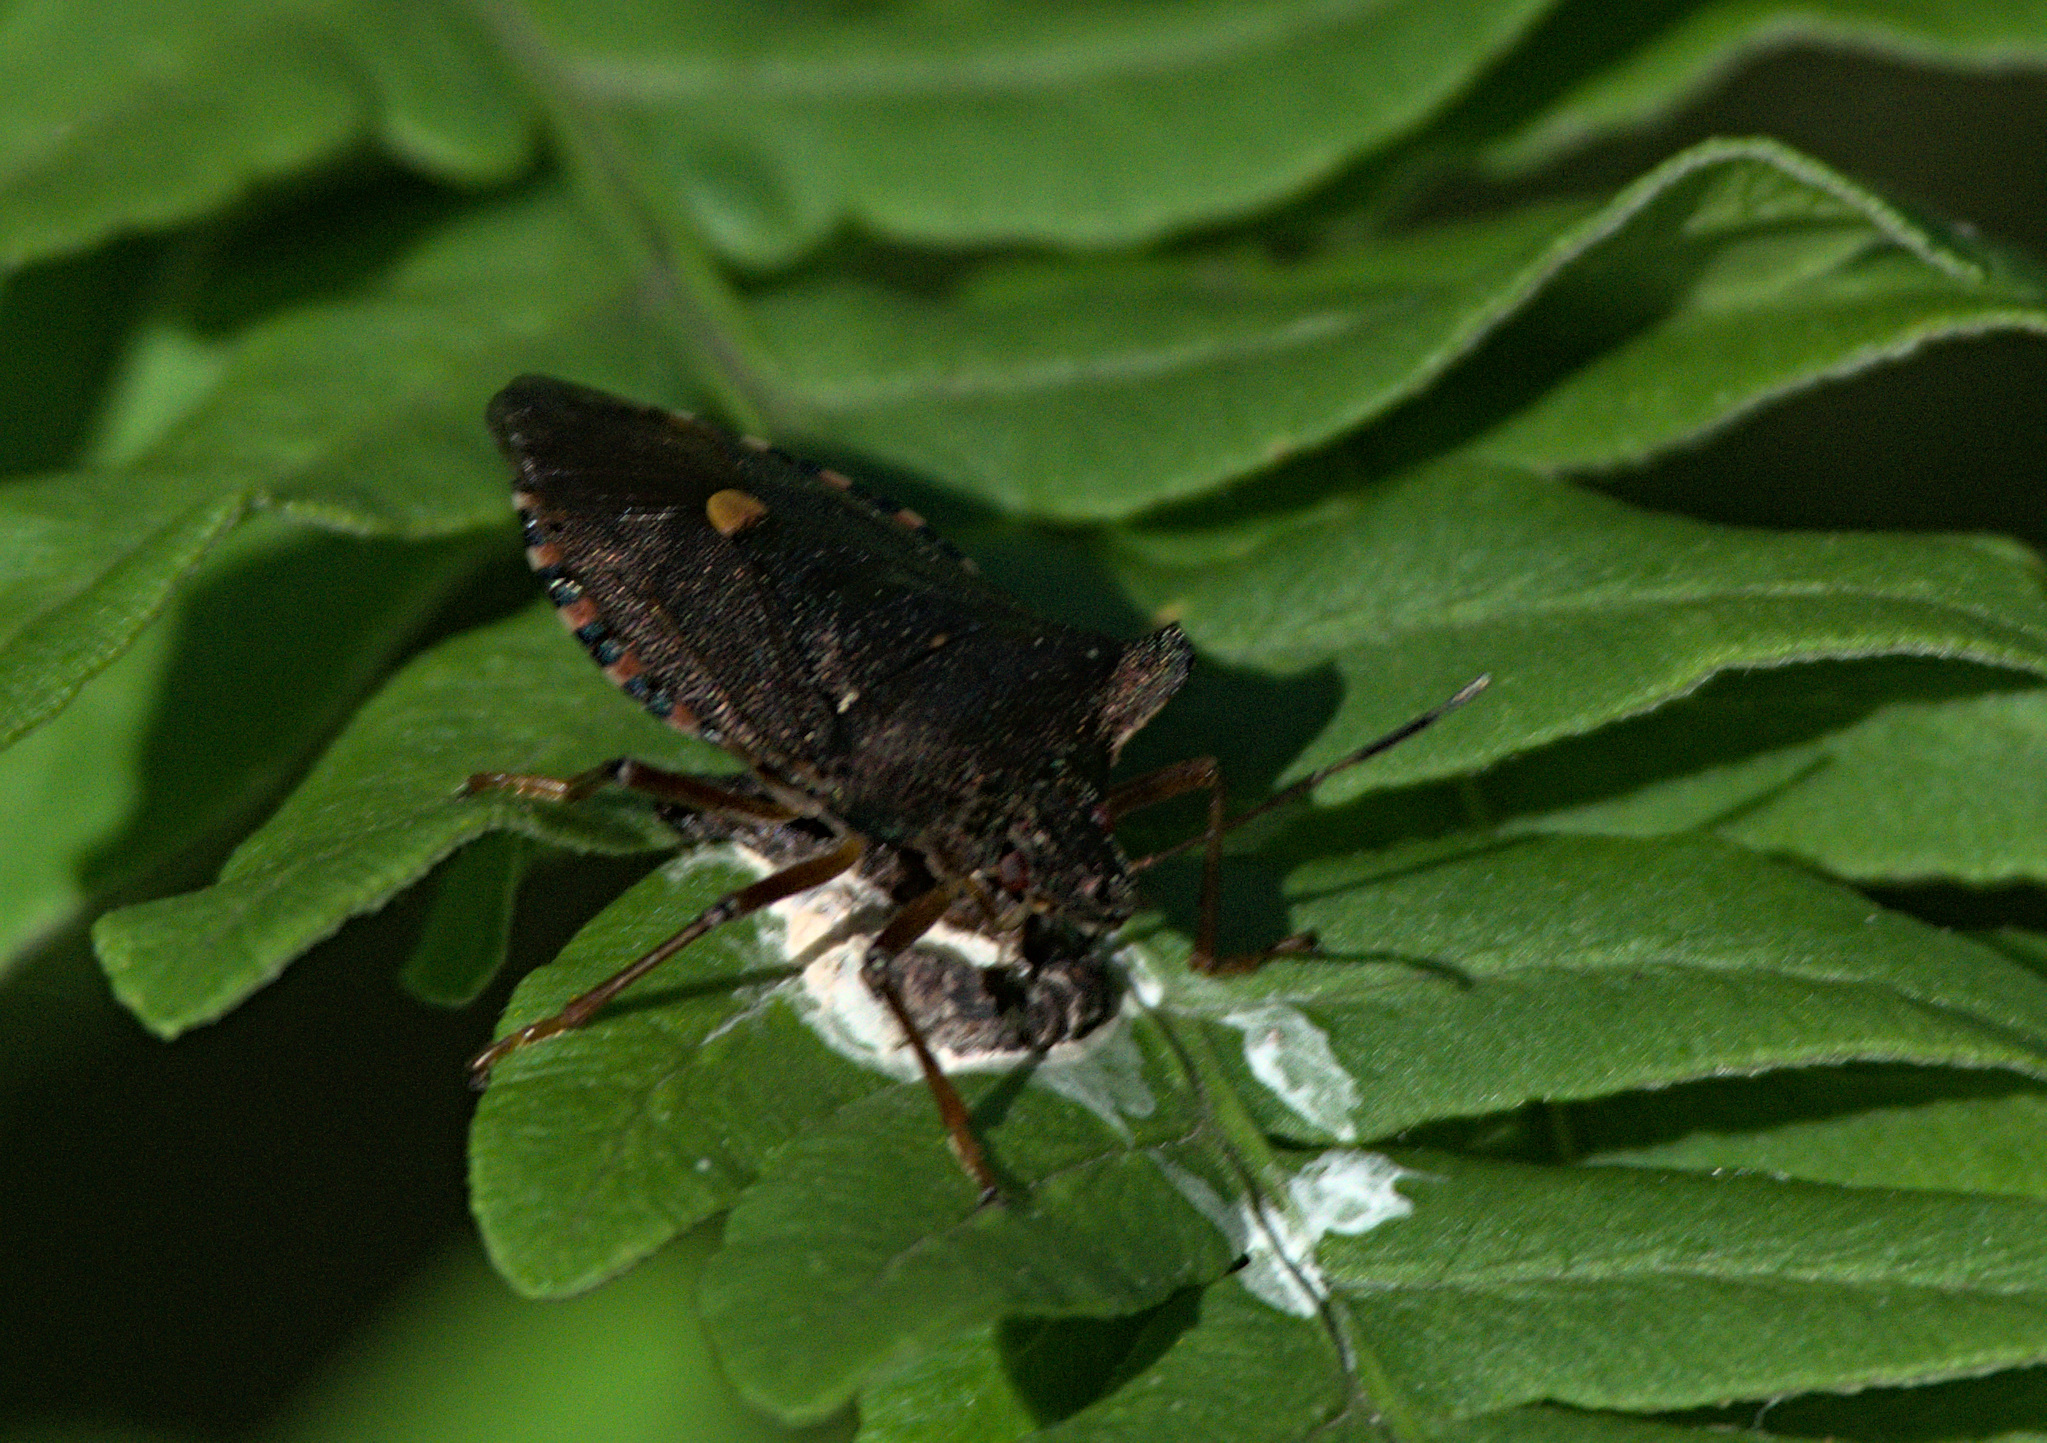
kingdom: Animalia
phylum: Arthropoda
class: Insecta
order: Hemiptera
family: Pentatomidae
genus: Pentatoma
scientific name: Pentatoma rufipes
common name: Forest bug
